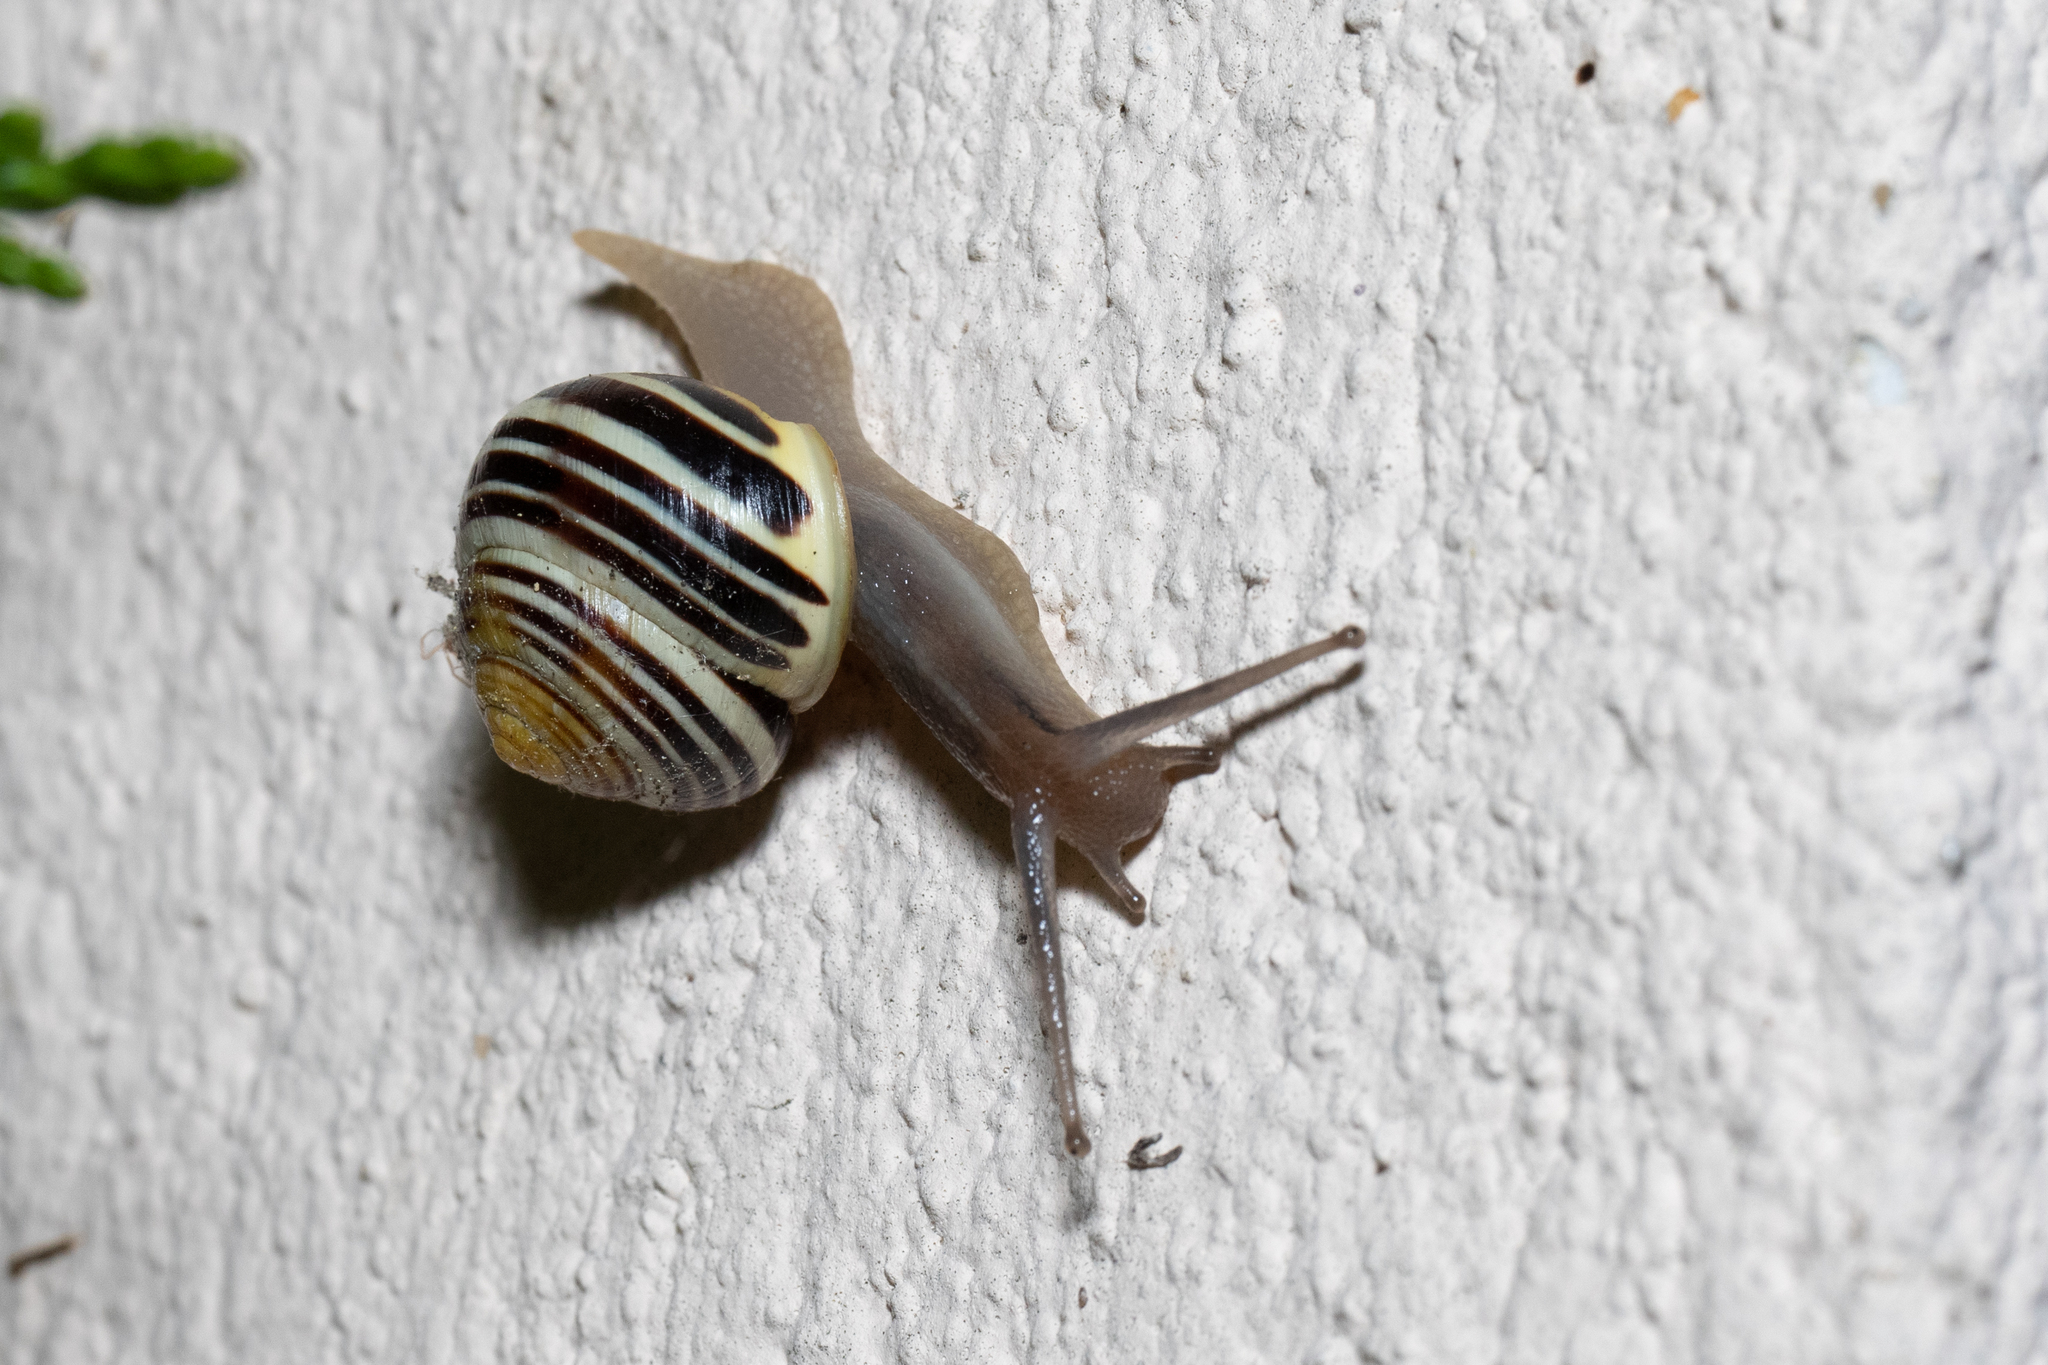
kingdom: Animalia
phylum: Mollusca
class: Gastropoda
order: Stylommatophora
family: Helicidae
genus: Cepaea
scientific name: Cepaea hortensis
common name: White-lip gardensnail
